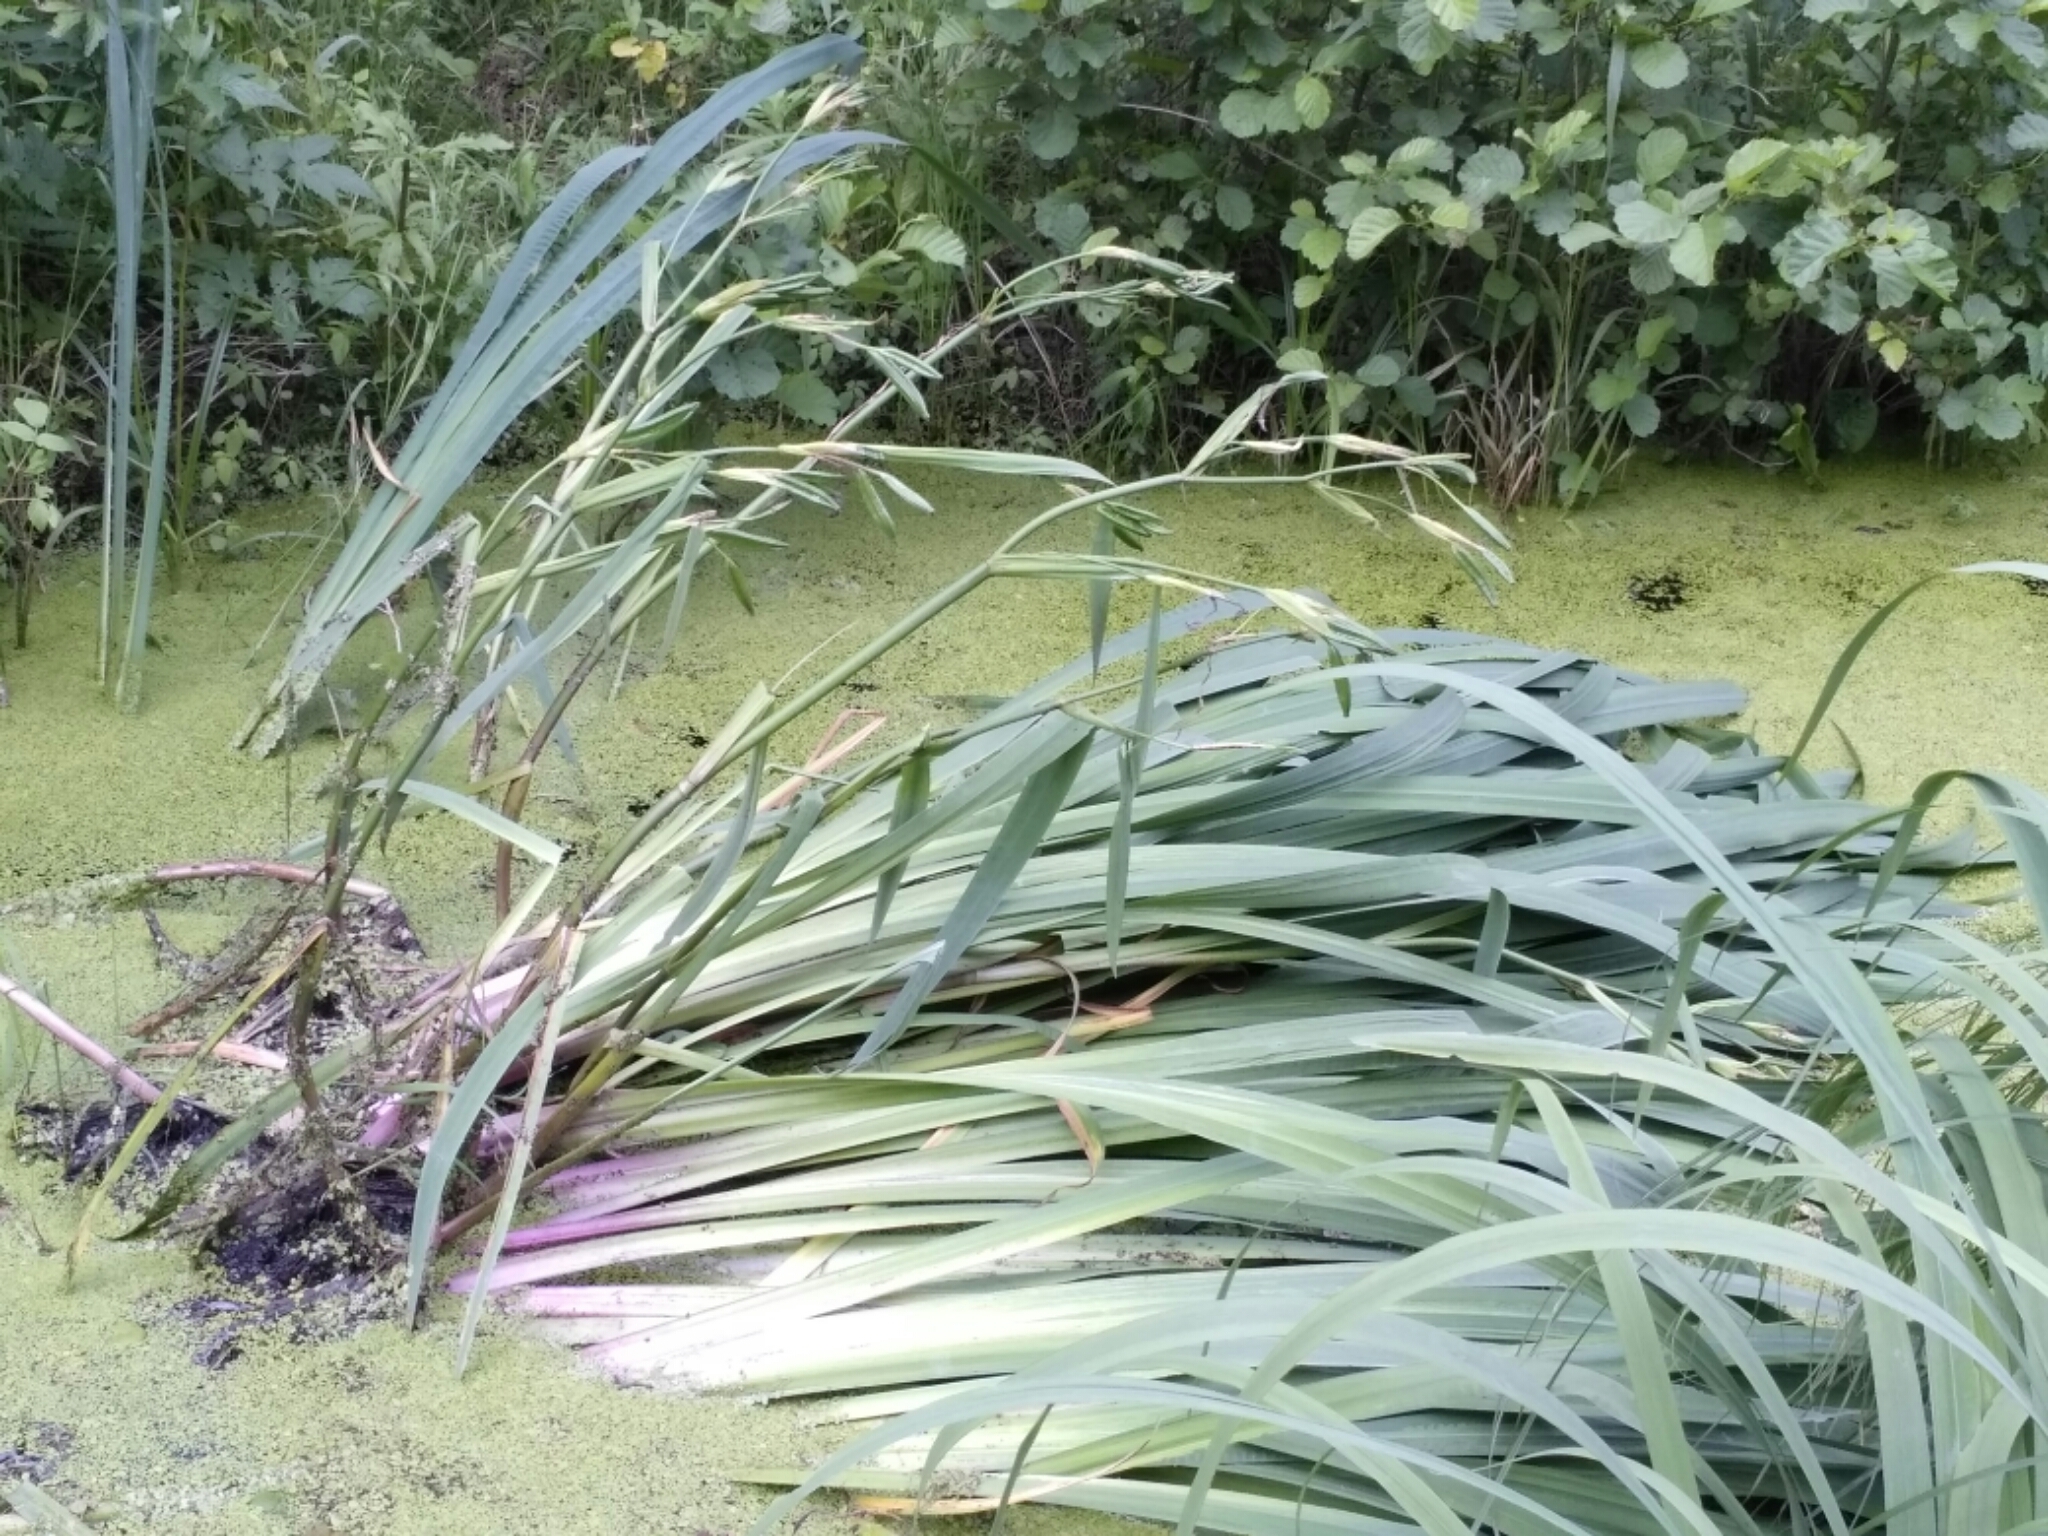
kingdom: Plantae
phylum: Tracheophyta
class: Liliopsida
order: Asparagales
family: Iridaceae
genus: Iris
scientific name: Iris pseudacorus
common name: Yellow flag
